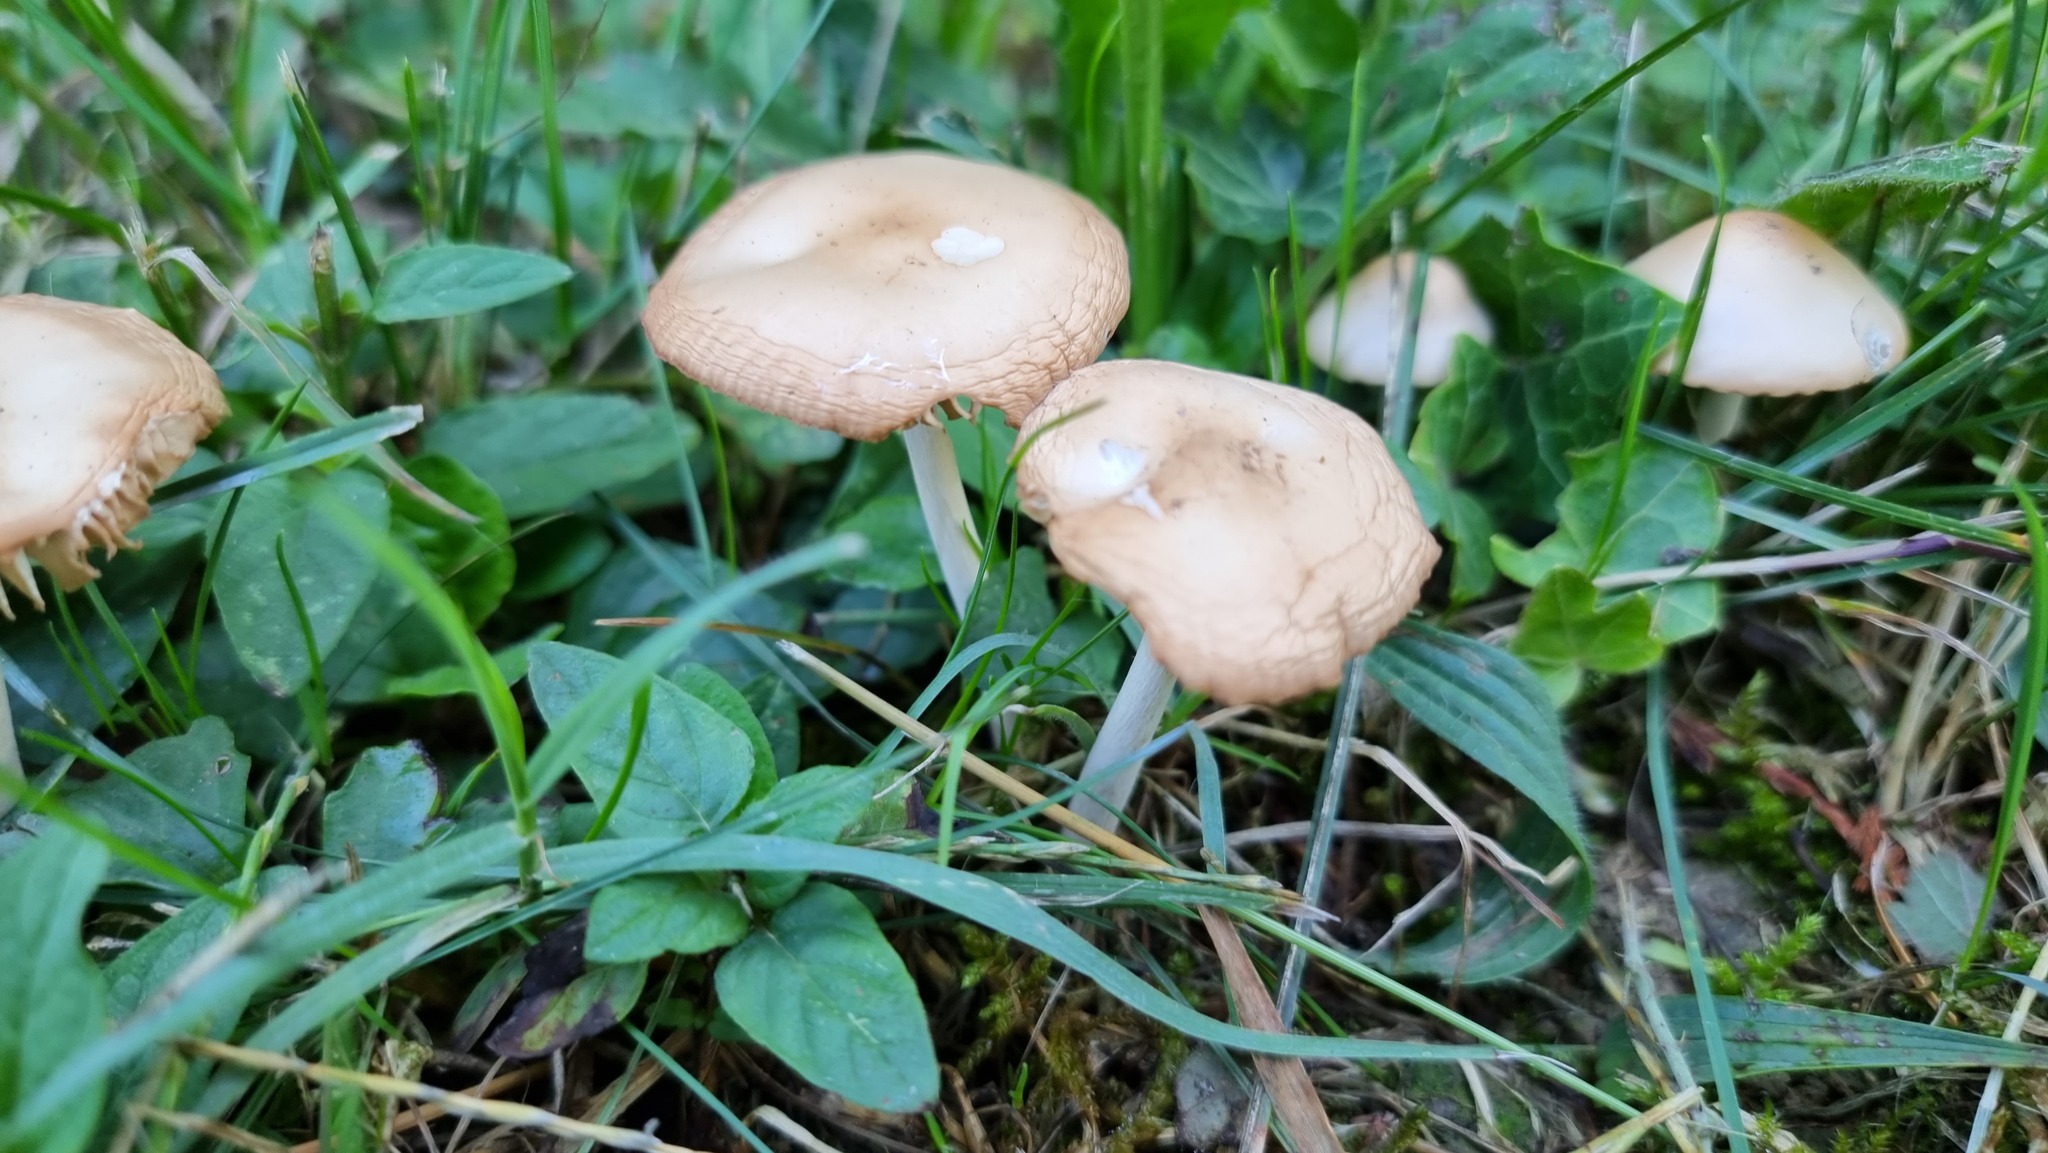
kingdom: Fungi
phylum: Basidiomycota
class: Agaricomycetes
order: Agaricales
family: Marasmiaceae
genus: Marasmius
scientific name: Marasmius oreades
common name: Fairy ring champignon
